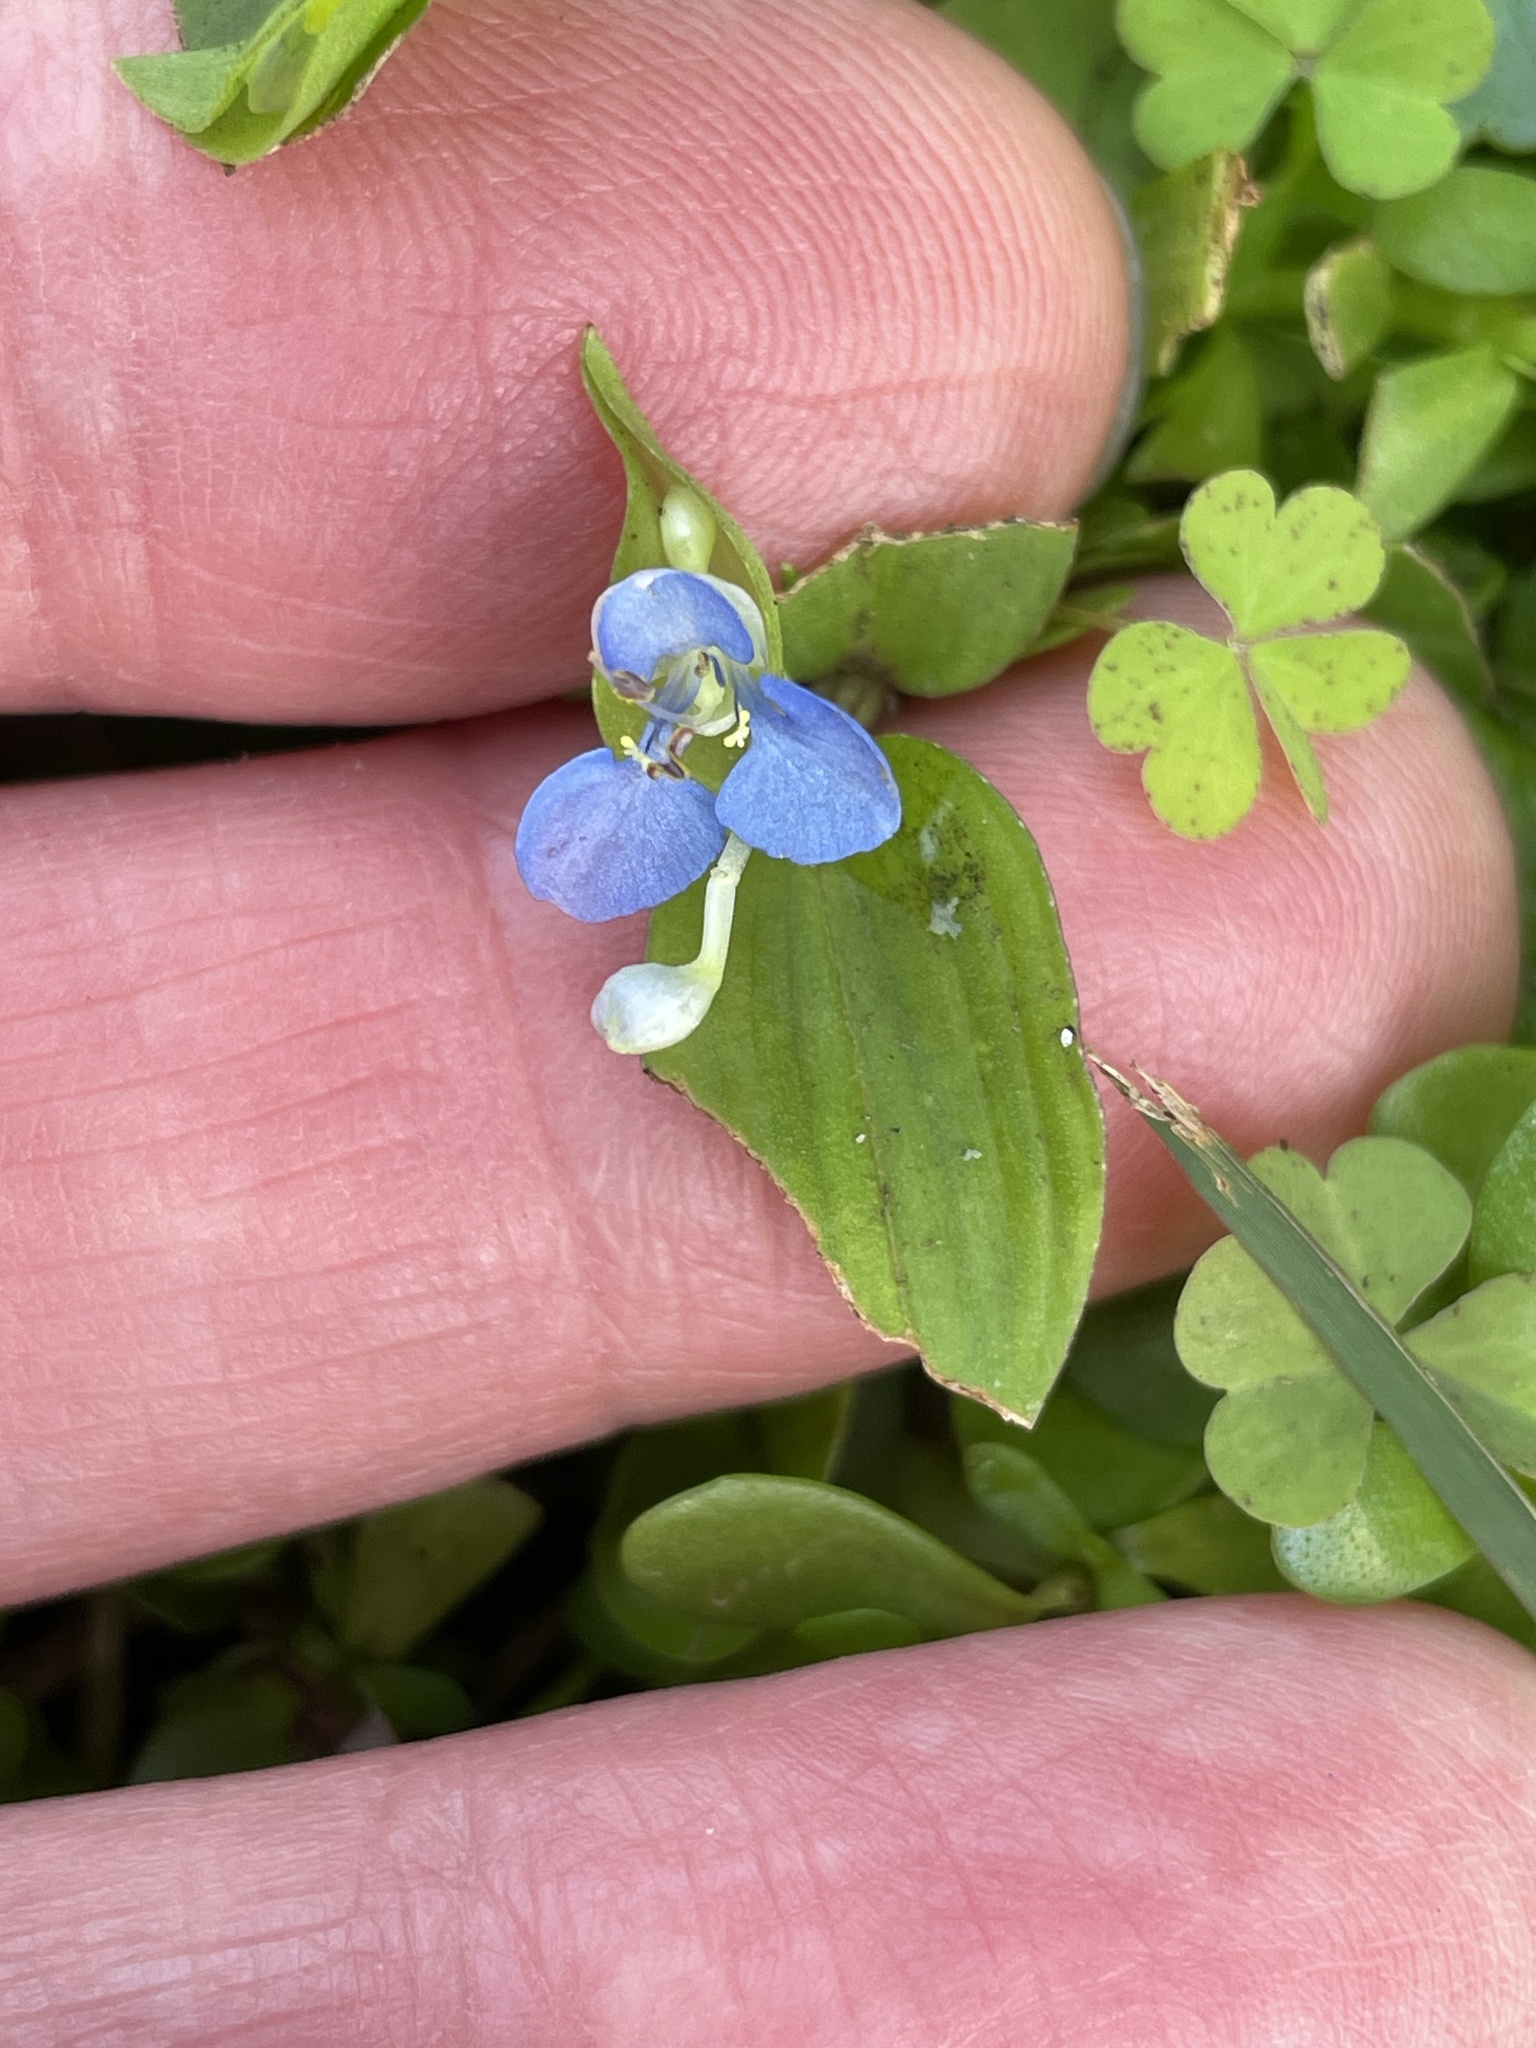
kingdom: Plantae
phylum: Tracheophyta
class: Liliopsida
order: Commelinales
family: Commelinaceae
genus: Commelina
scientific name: Commelina diffusa
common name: Climbing dayflower
